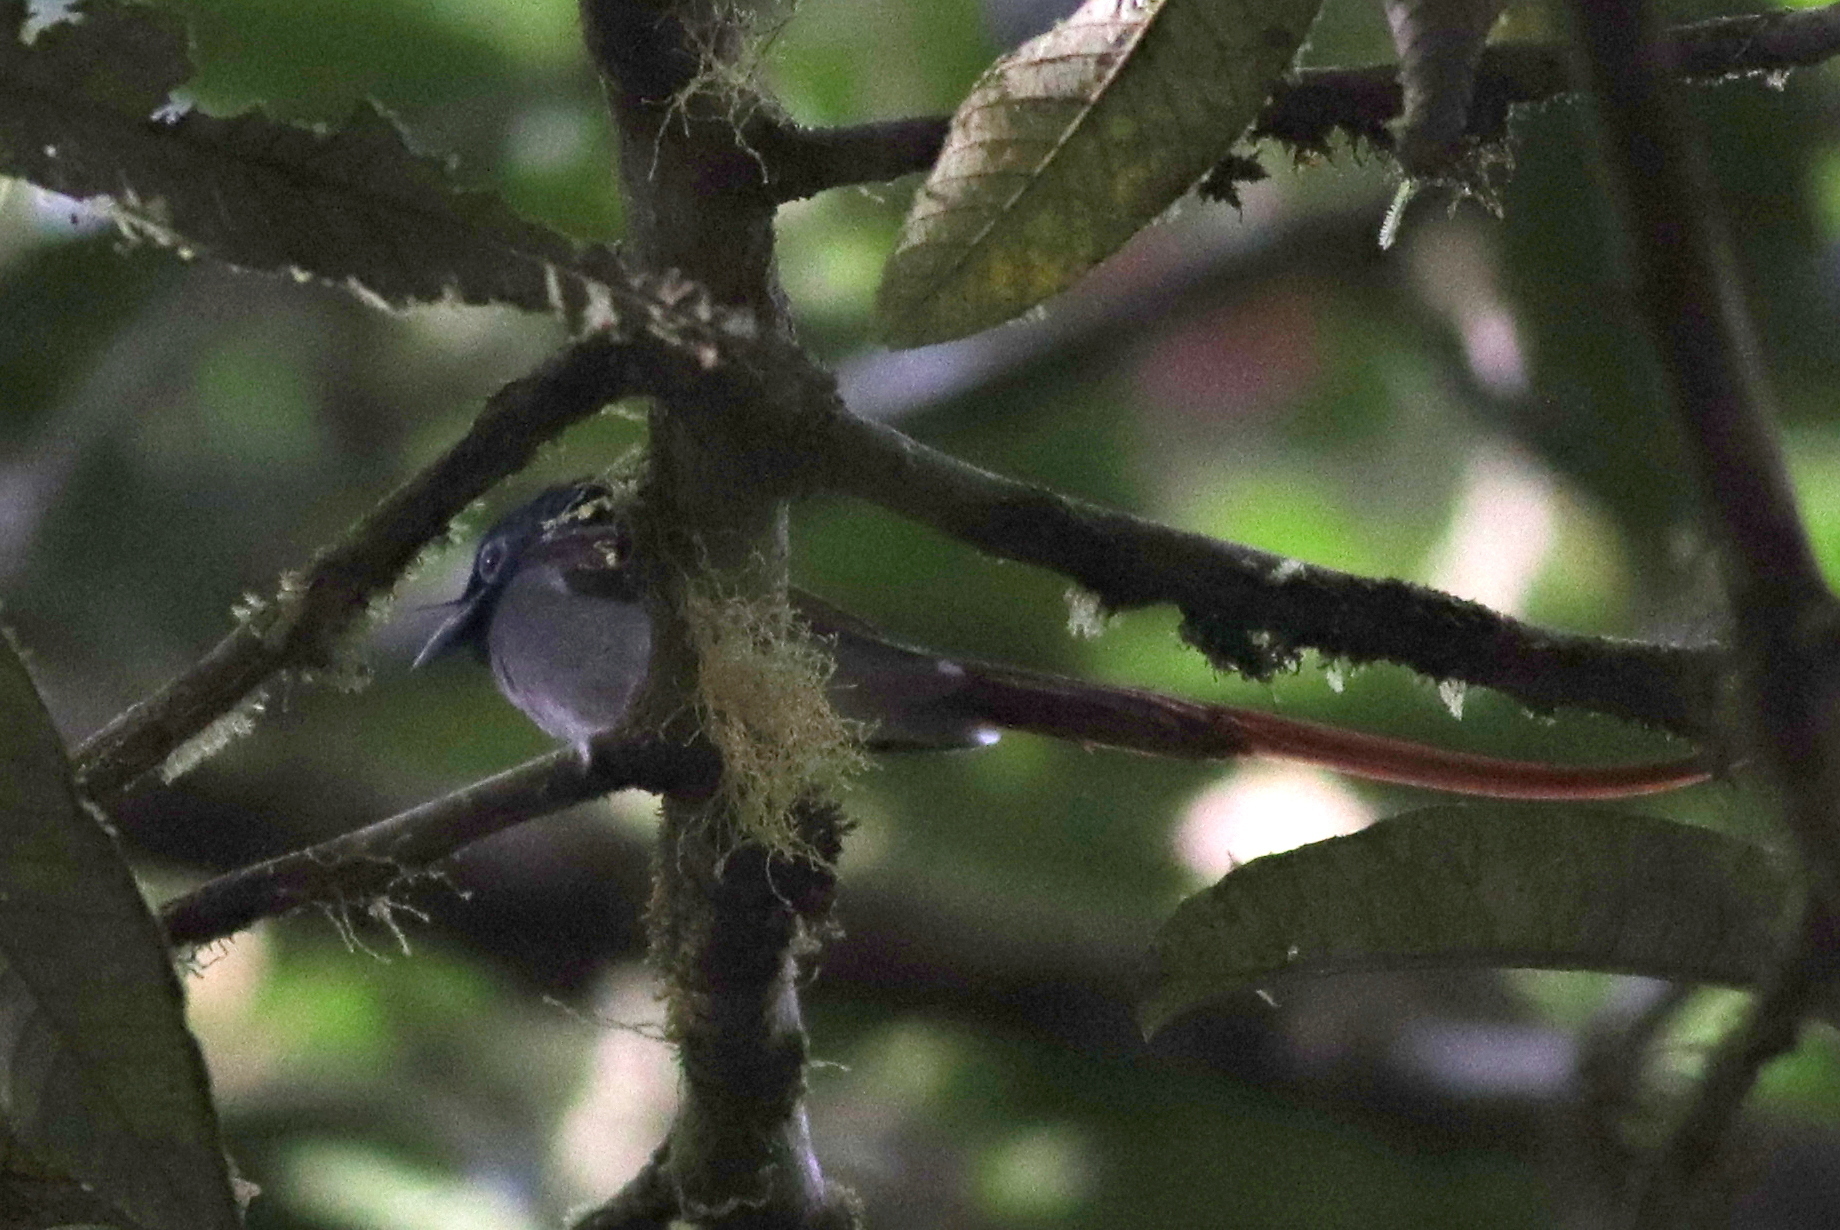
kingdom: Animalia
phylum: Chordata
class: Aves
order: Passeriformes
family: Monarchidae
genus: Terpsiphone
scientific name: Terpsiphone paradisi
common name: Indian paradise flycatcher
